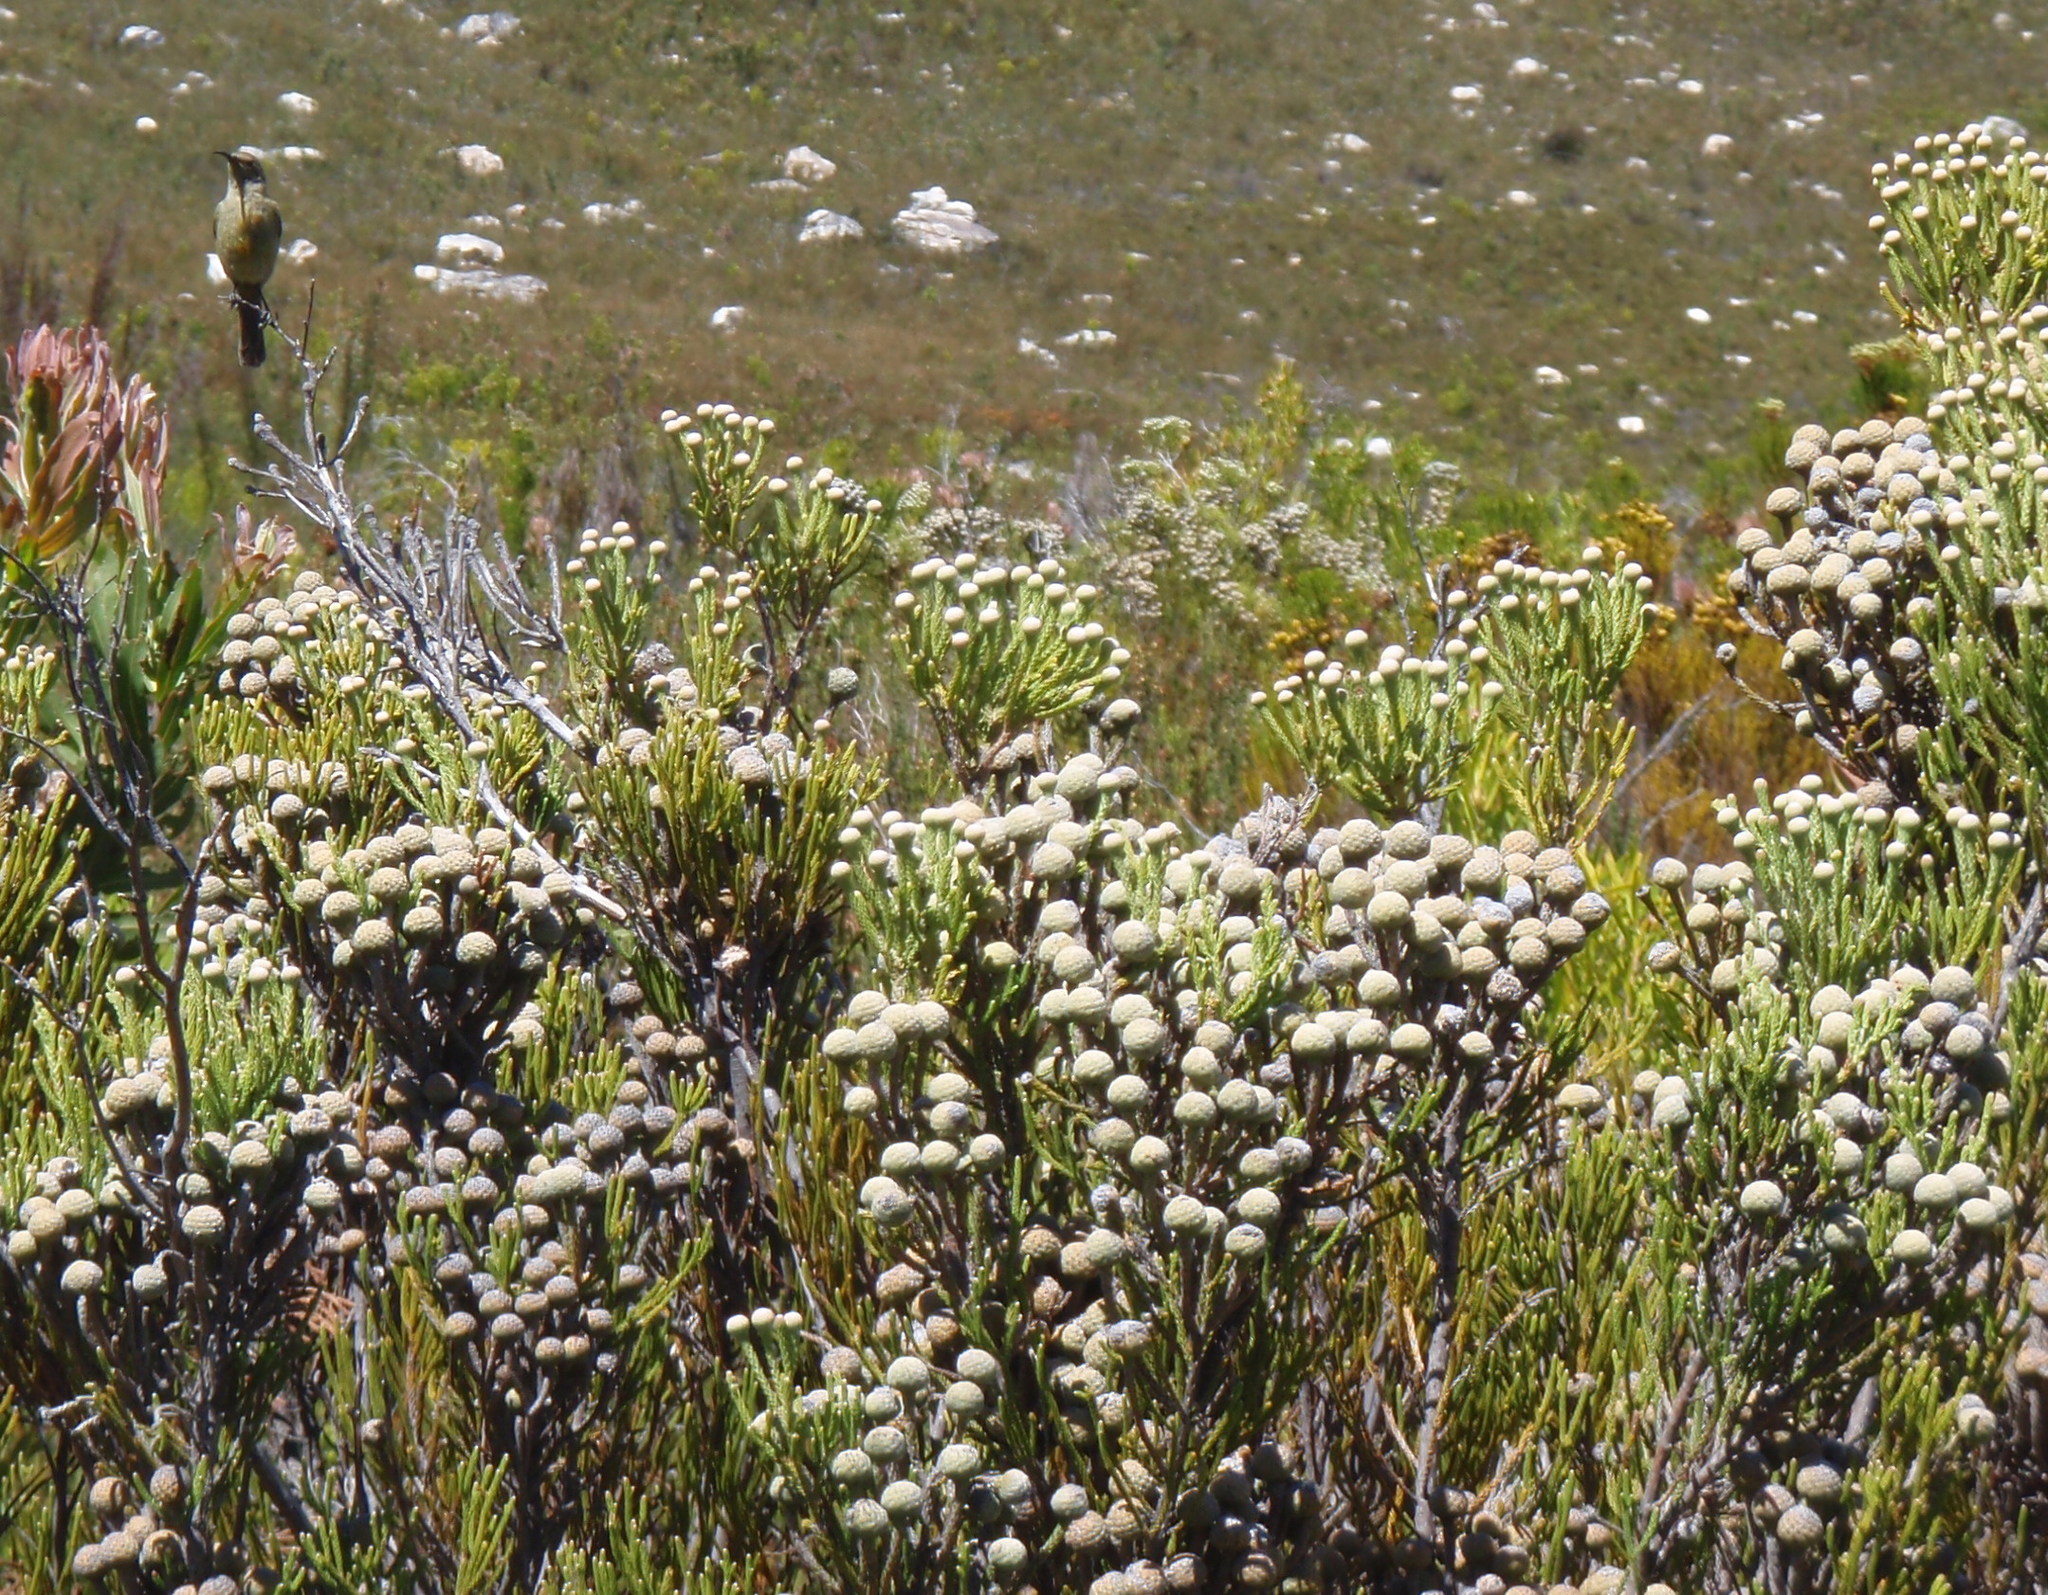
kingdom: Plantae
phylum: Tracheophyta
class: Magnoliopsida
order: Bruniales
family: Bruniaceae
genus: Brunia
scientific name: Brunia noduliflora
